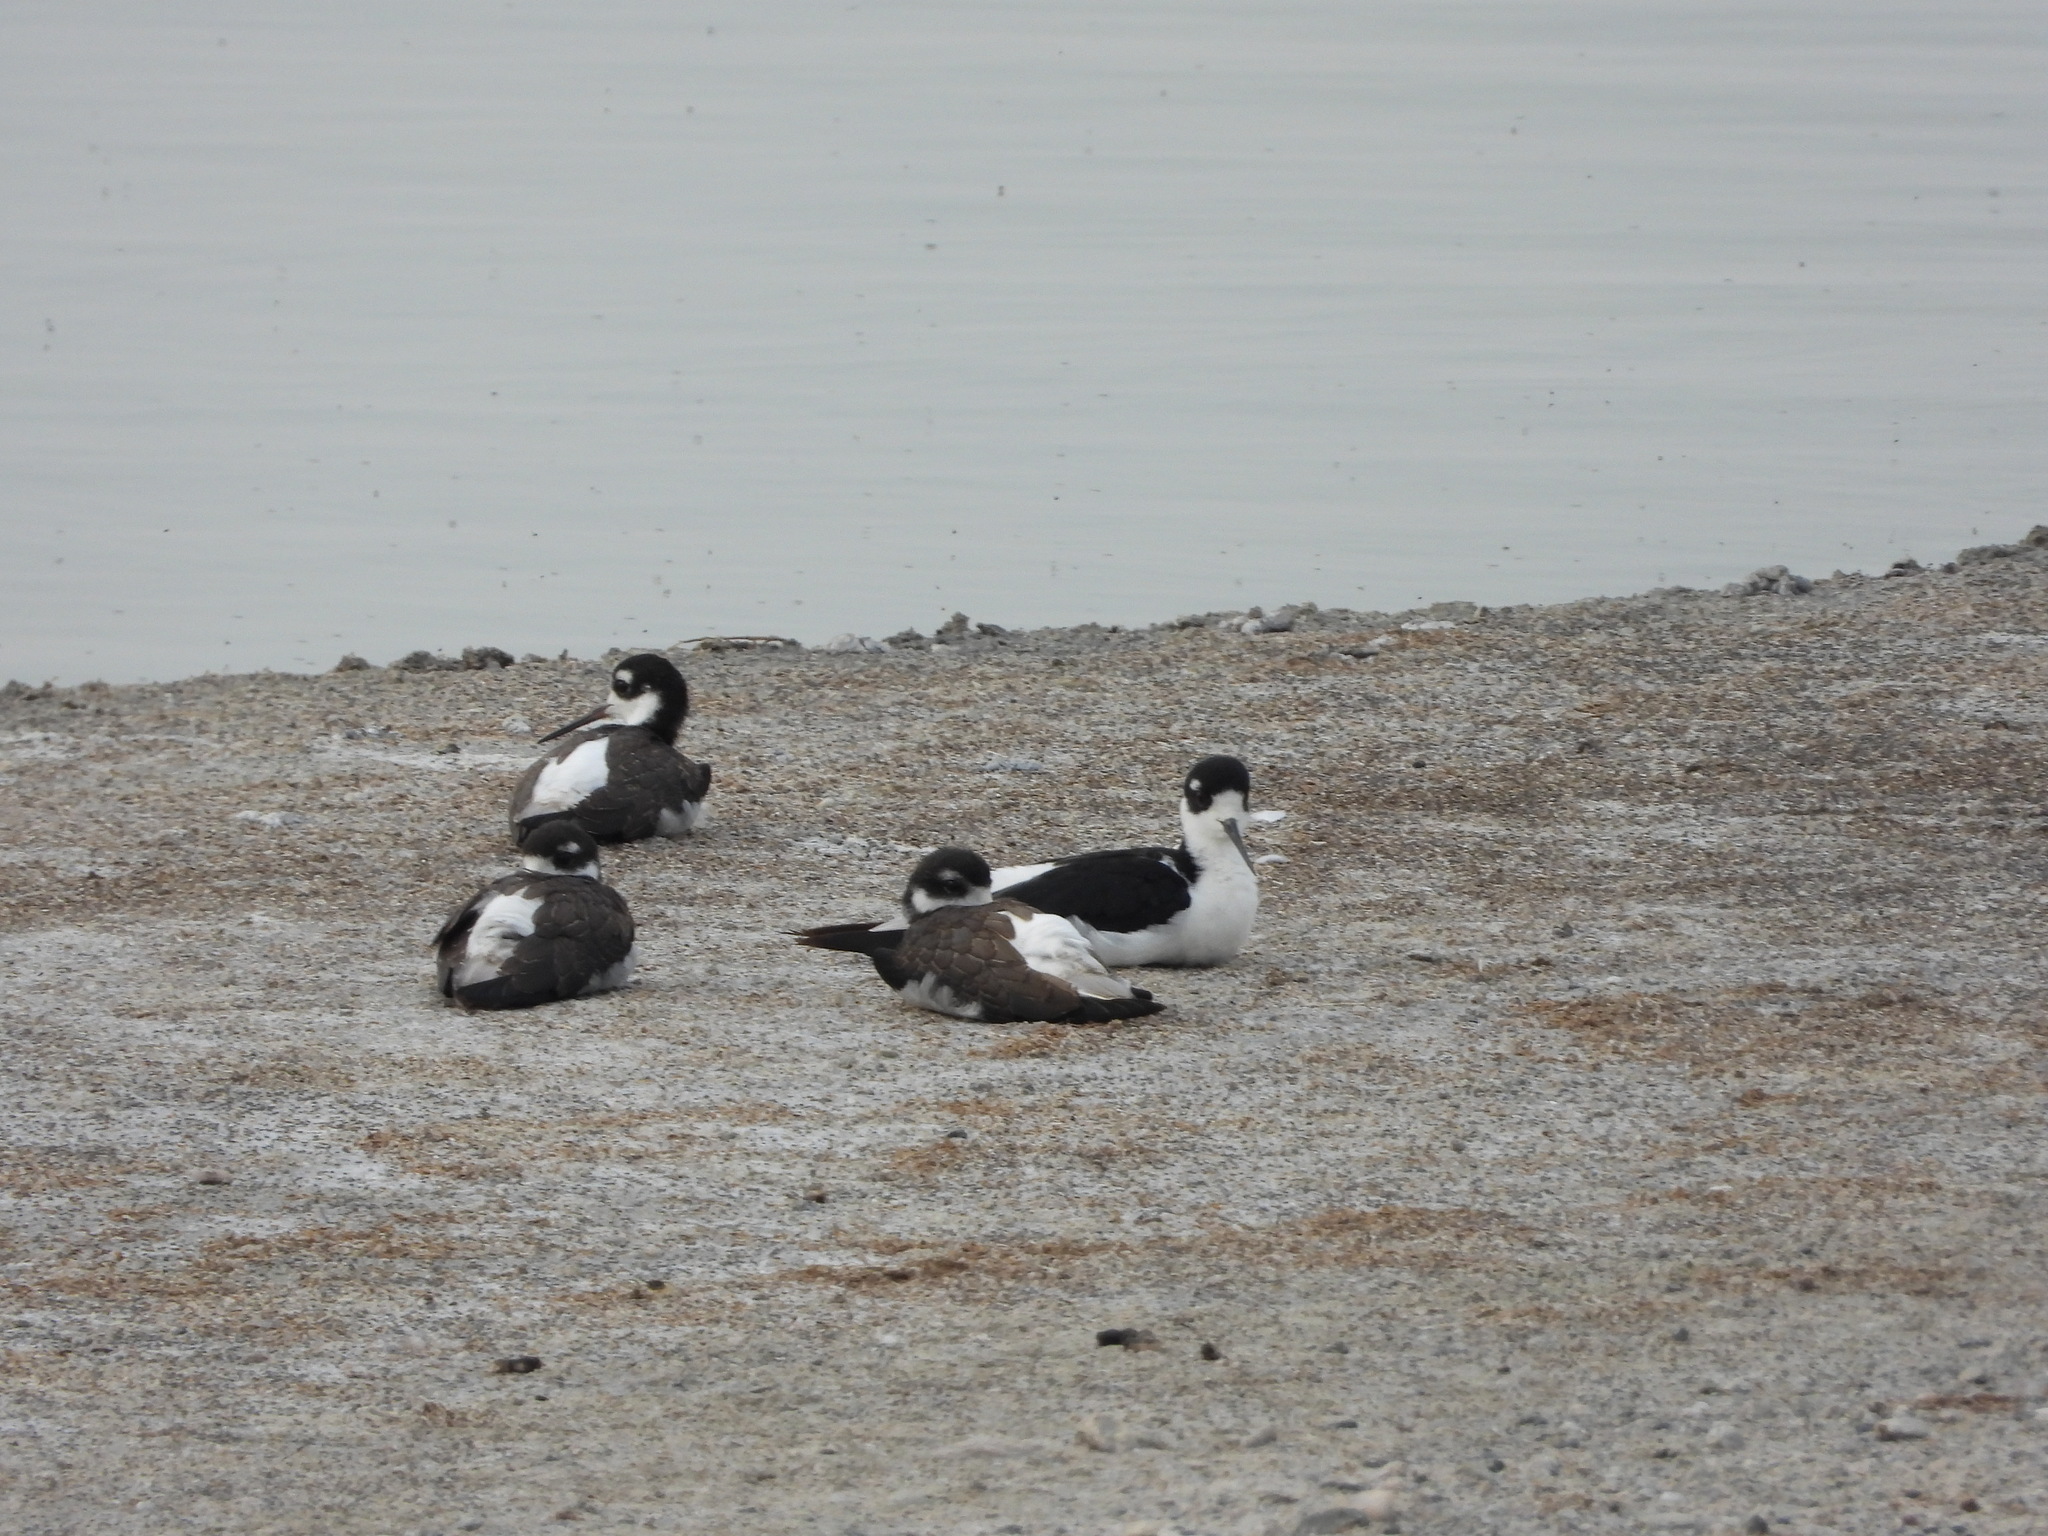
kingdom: Animalia
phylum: Chordata
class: Aves
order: Charadriiformes
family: Recurvirostridae
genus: Himantopus
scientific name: Himantopus mexicanus
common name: Black-necked stilt
